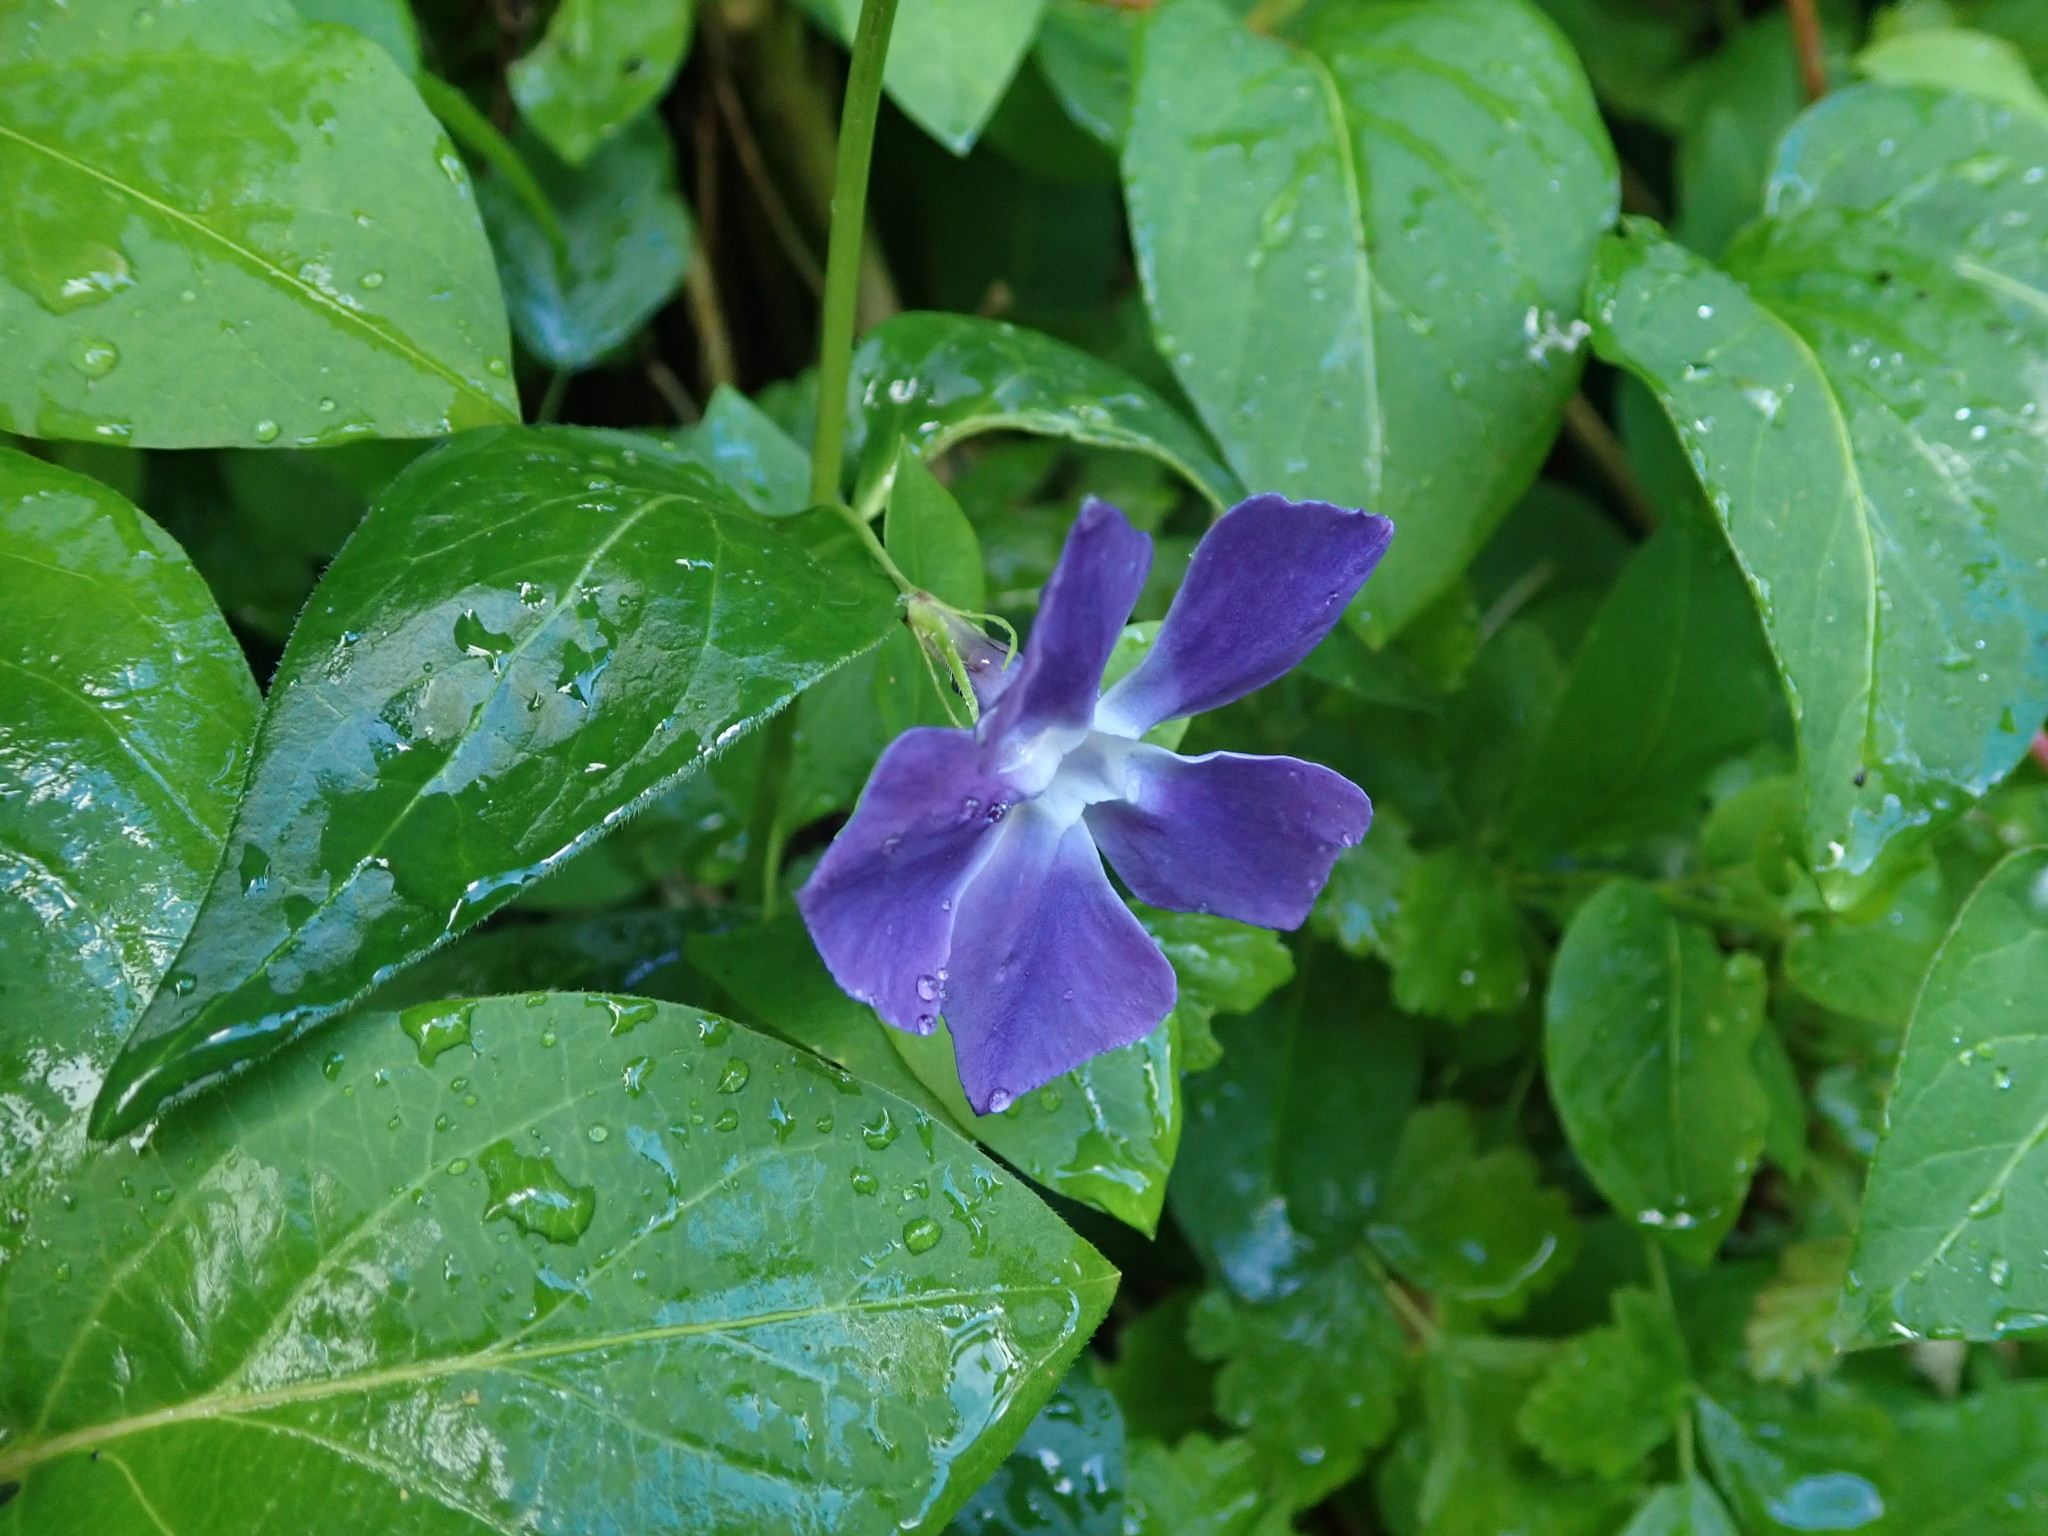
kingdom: Plantae
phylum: Tracheophyta
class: Magnoliopsida
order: Gentianales
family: Apocynaceae
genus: Vinca
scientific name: Vinca major
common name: Greater periwinkle
